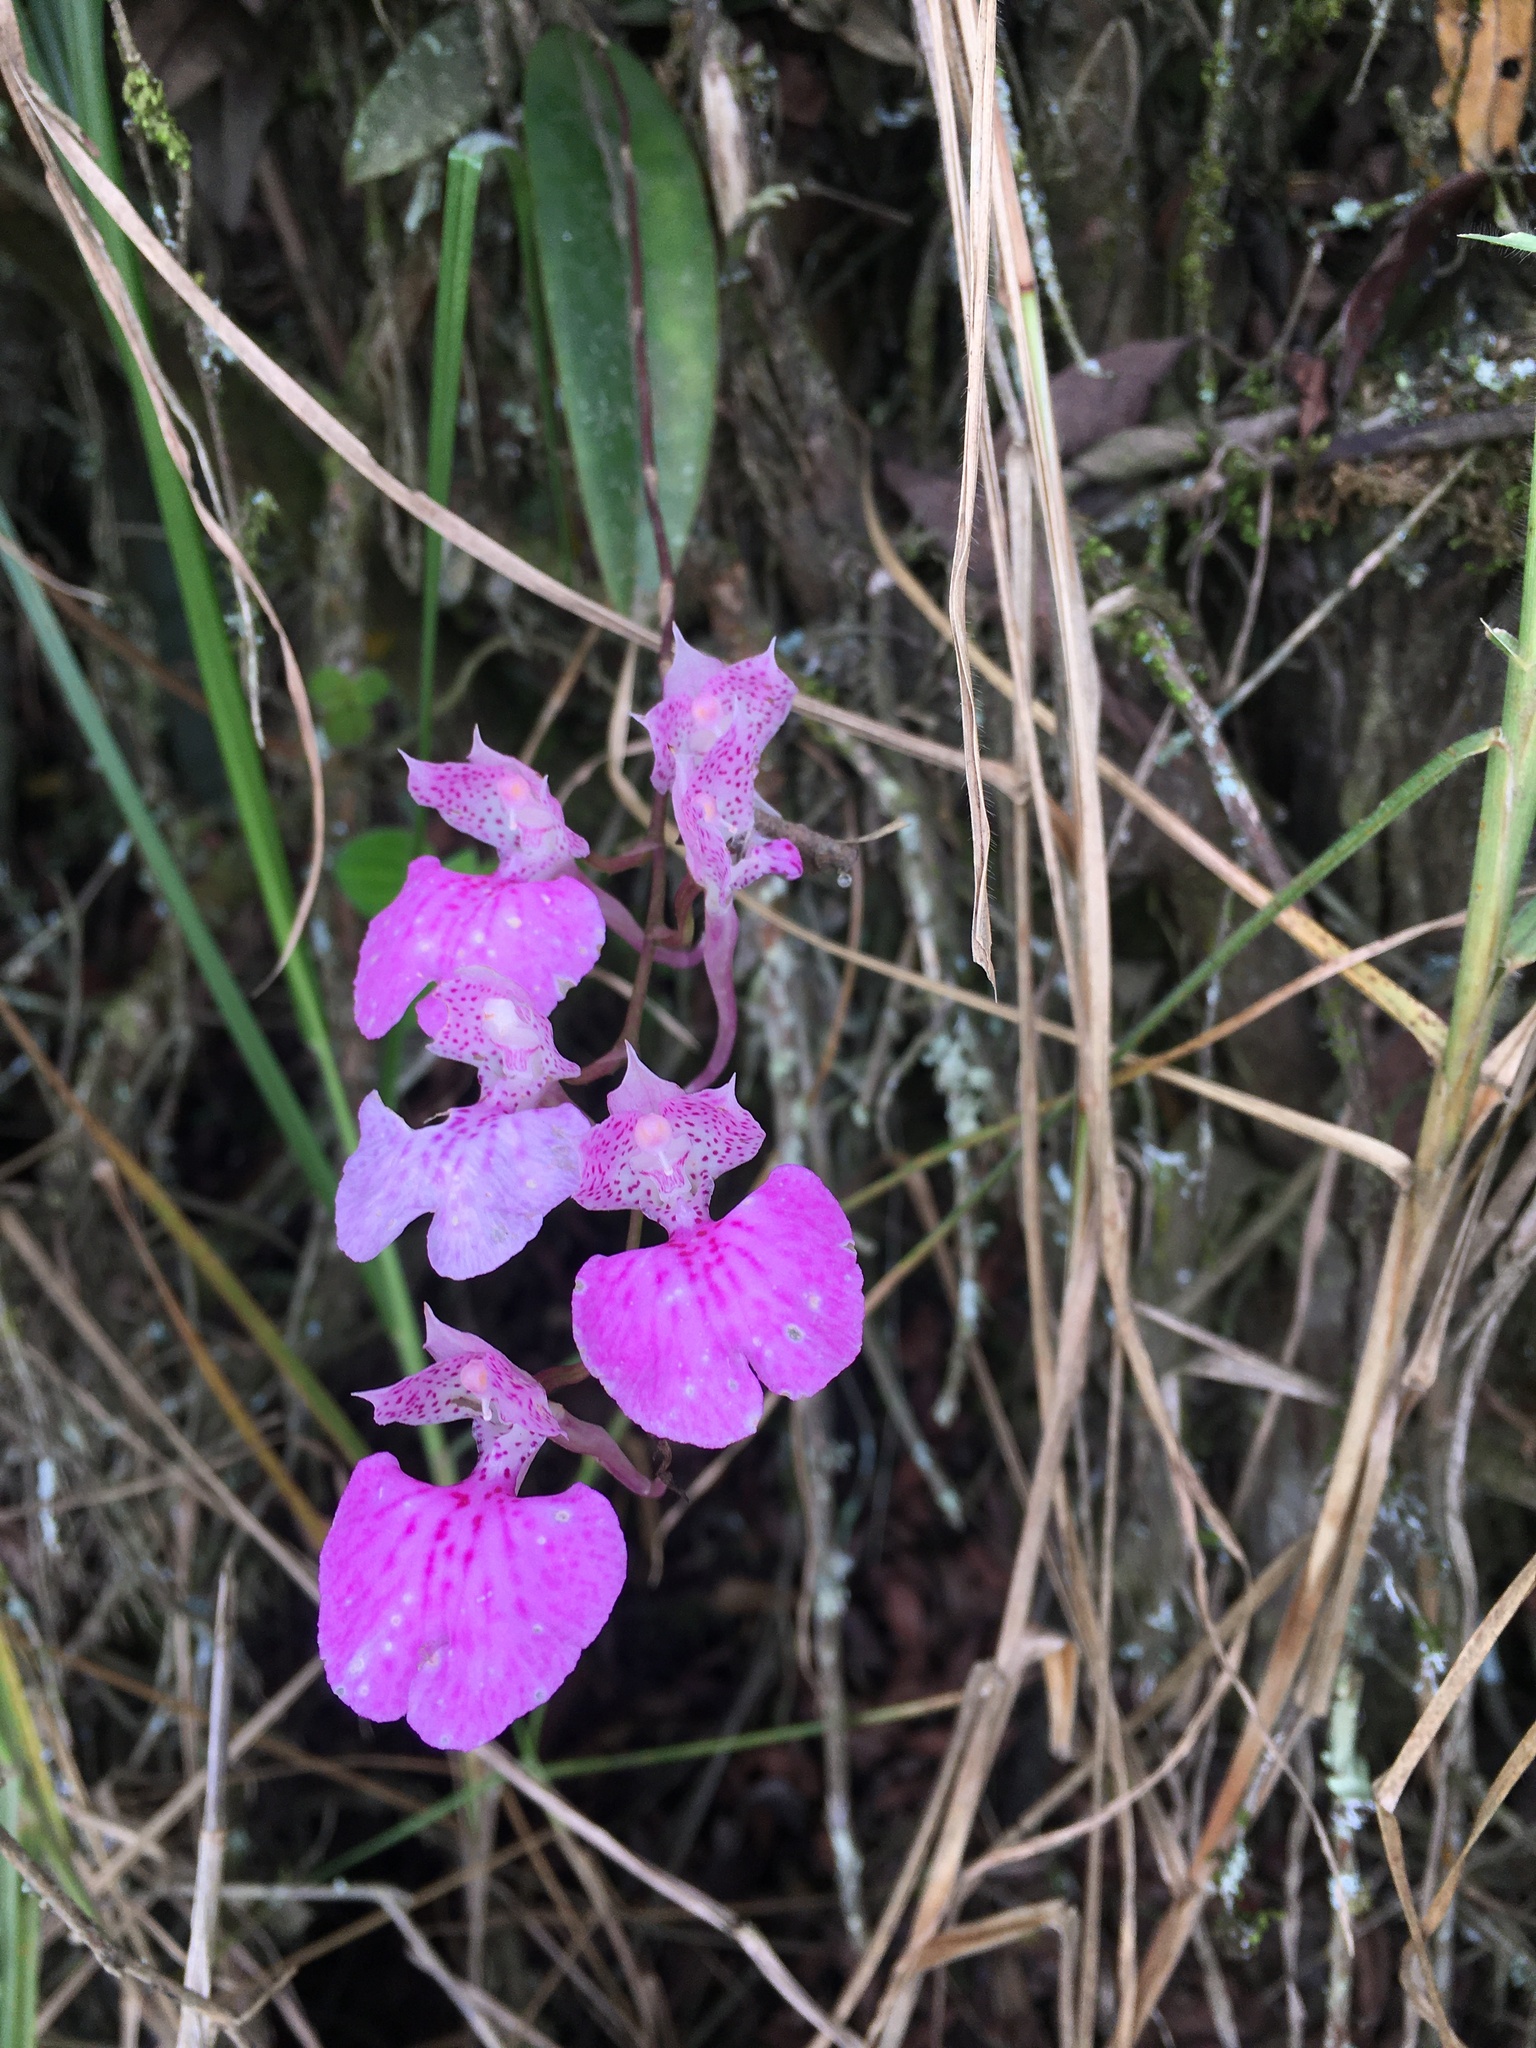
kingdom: Plantae
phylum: Tracheophyta
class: Liliopsida
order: Asparagales
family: Orchidaceae
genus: Comparettia
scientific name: Comparettia macroplectron
